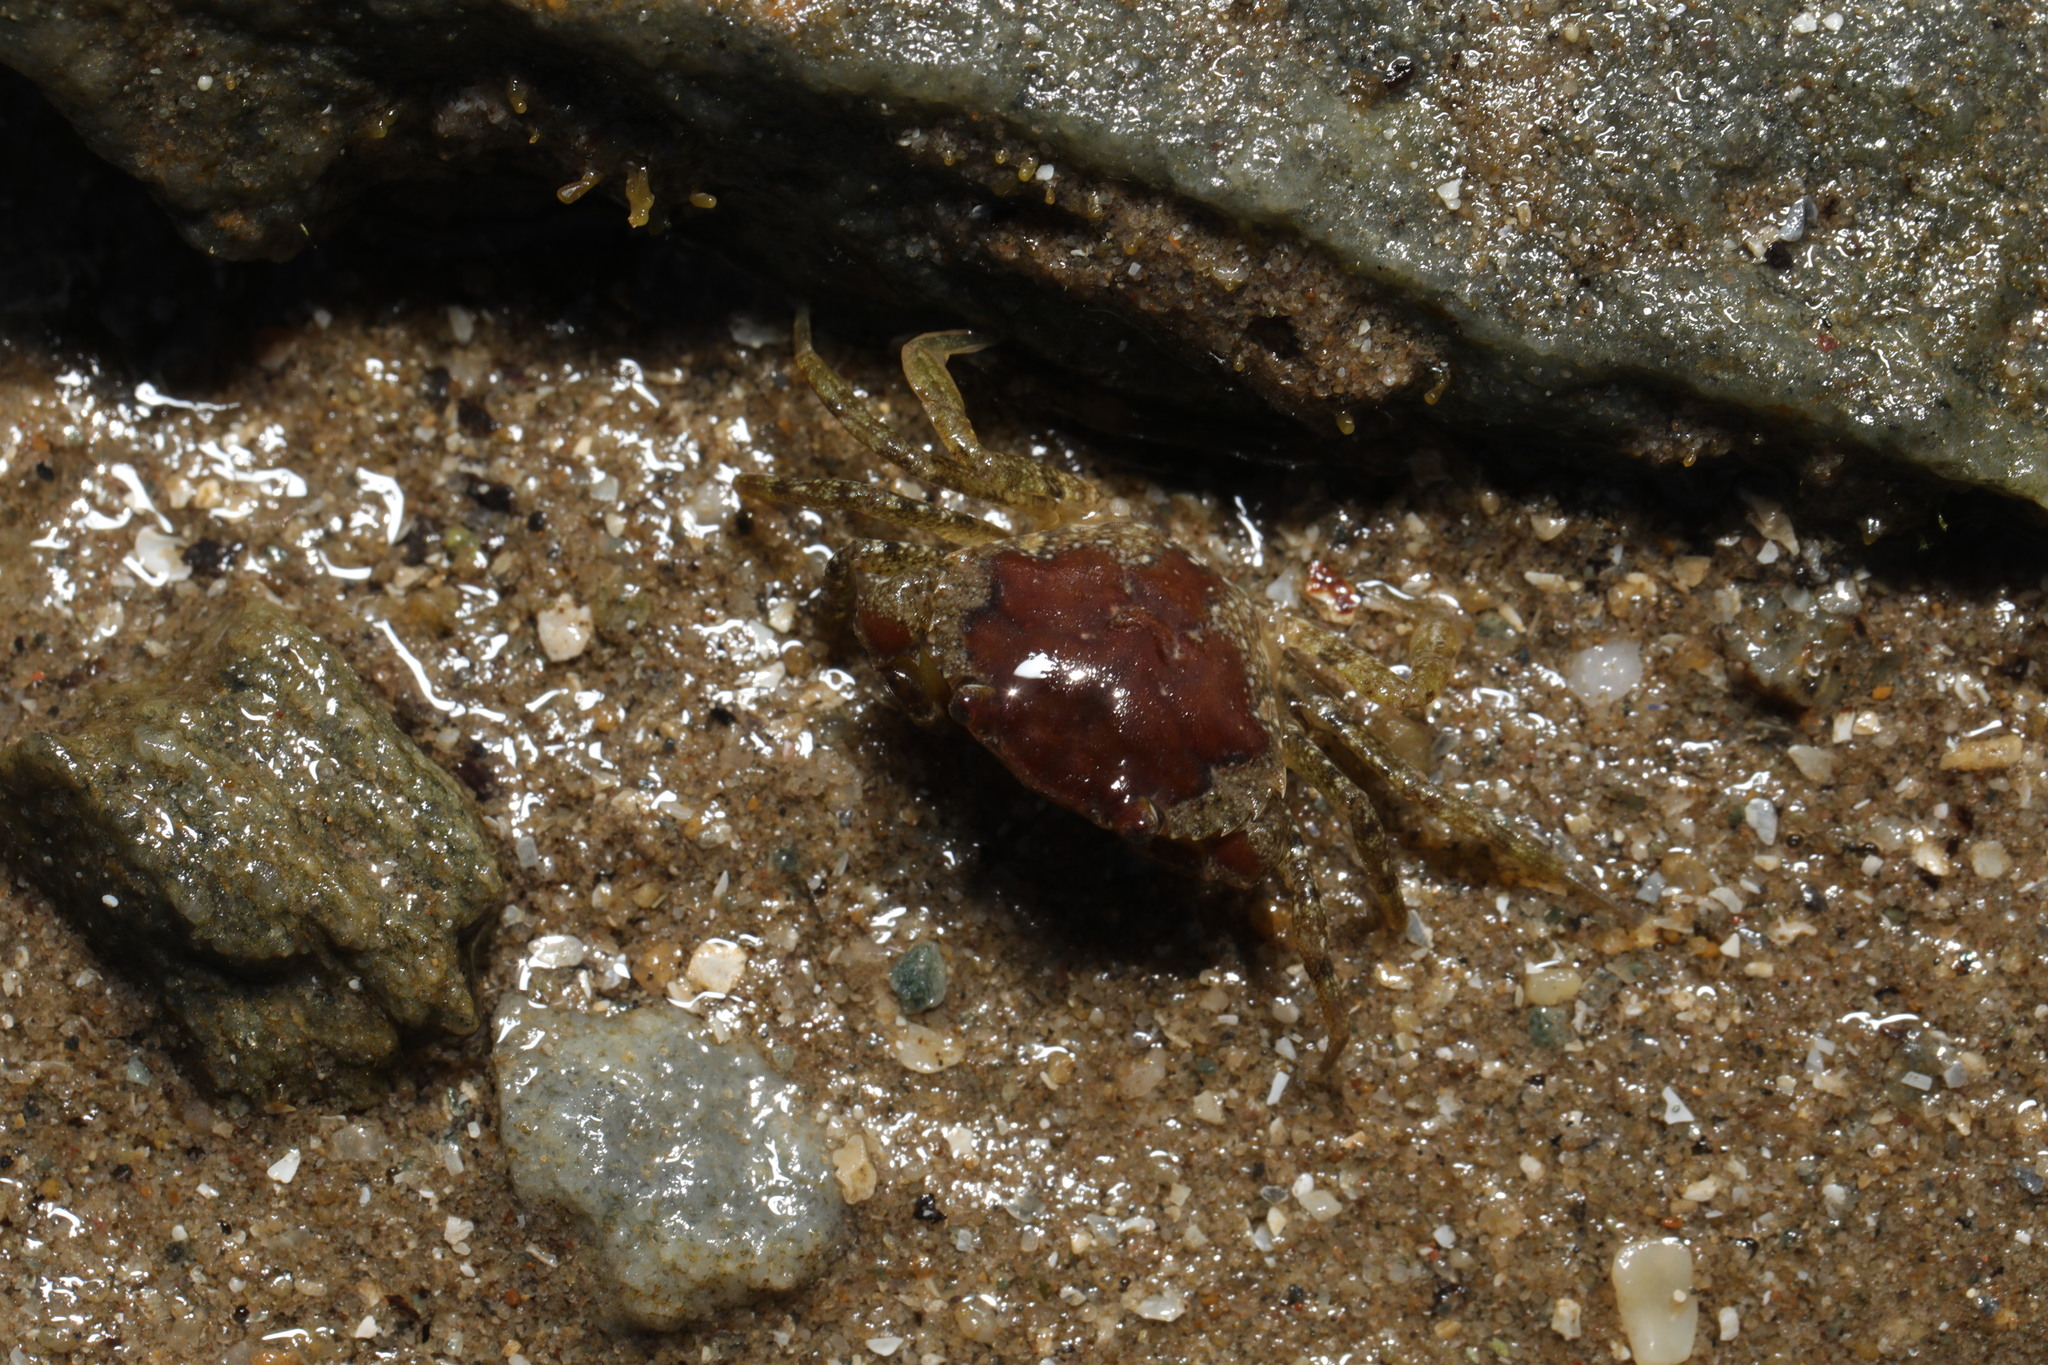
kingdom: Animalia
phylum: Arthropoda
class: Malacostraca
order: Decapoda
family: Carcinidae
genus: Carcinus
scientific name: Carcinus maenas
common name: European green crab
